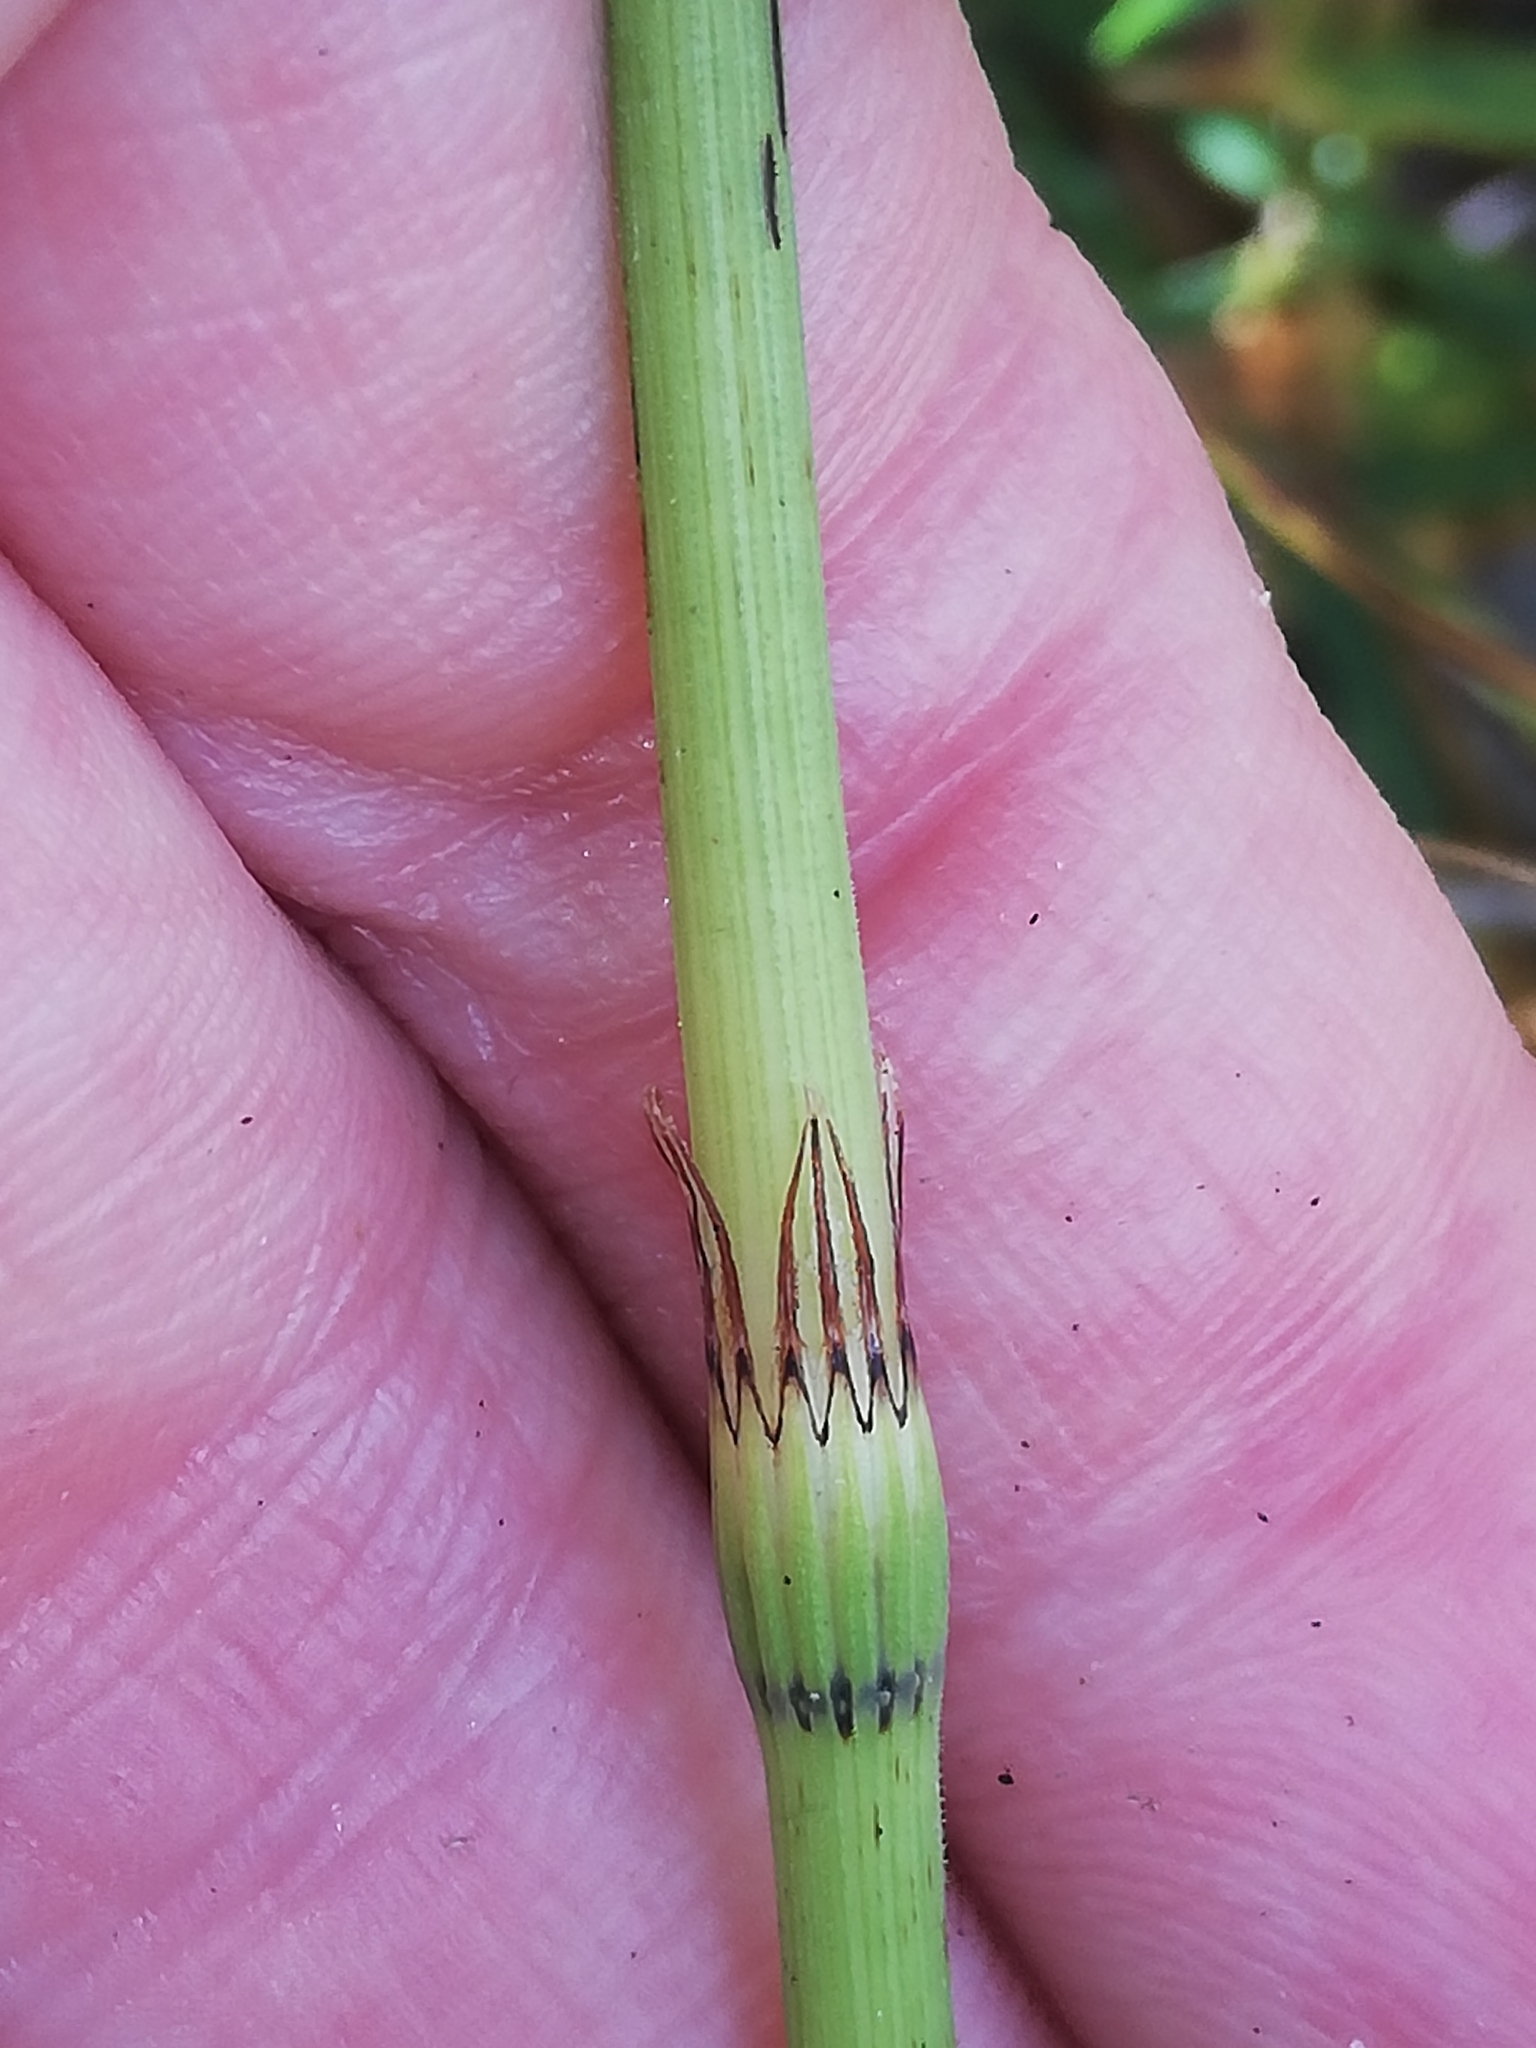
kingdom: Plantae
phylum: Tracheophyta
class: Polypodiopsida
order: Equisetales
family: Equisetaceae
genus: Equisetum
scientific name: Equisetum sylvaticum
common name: Wood horsetail
